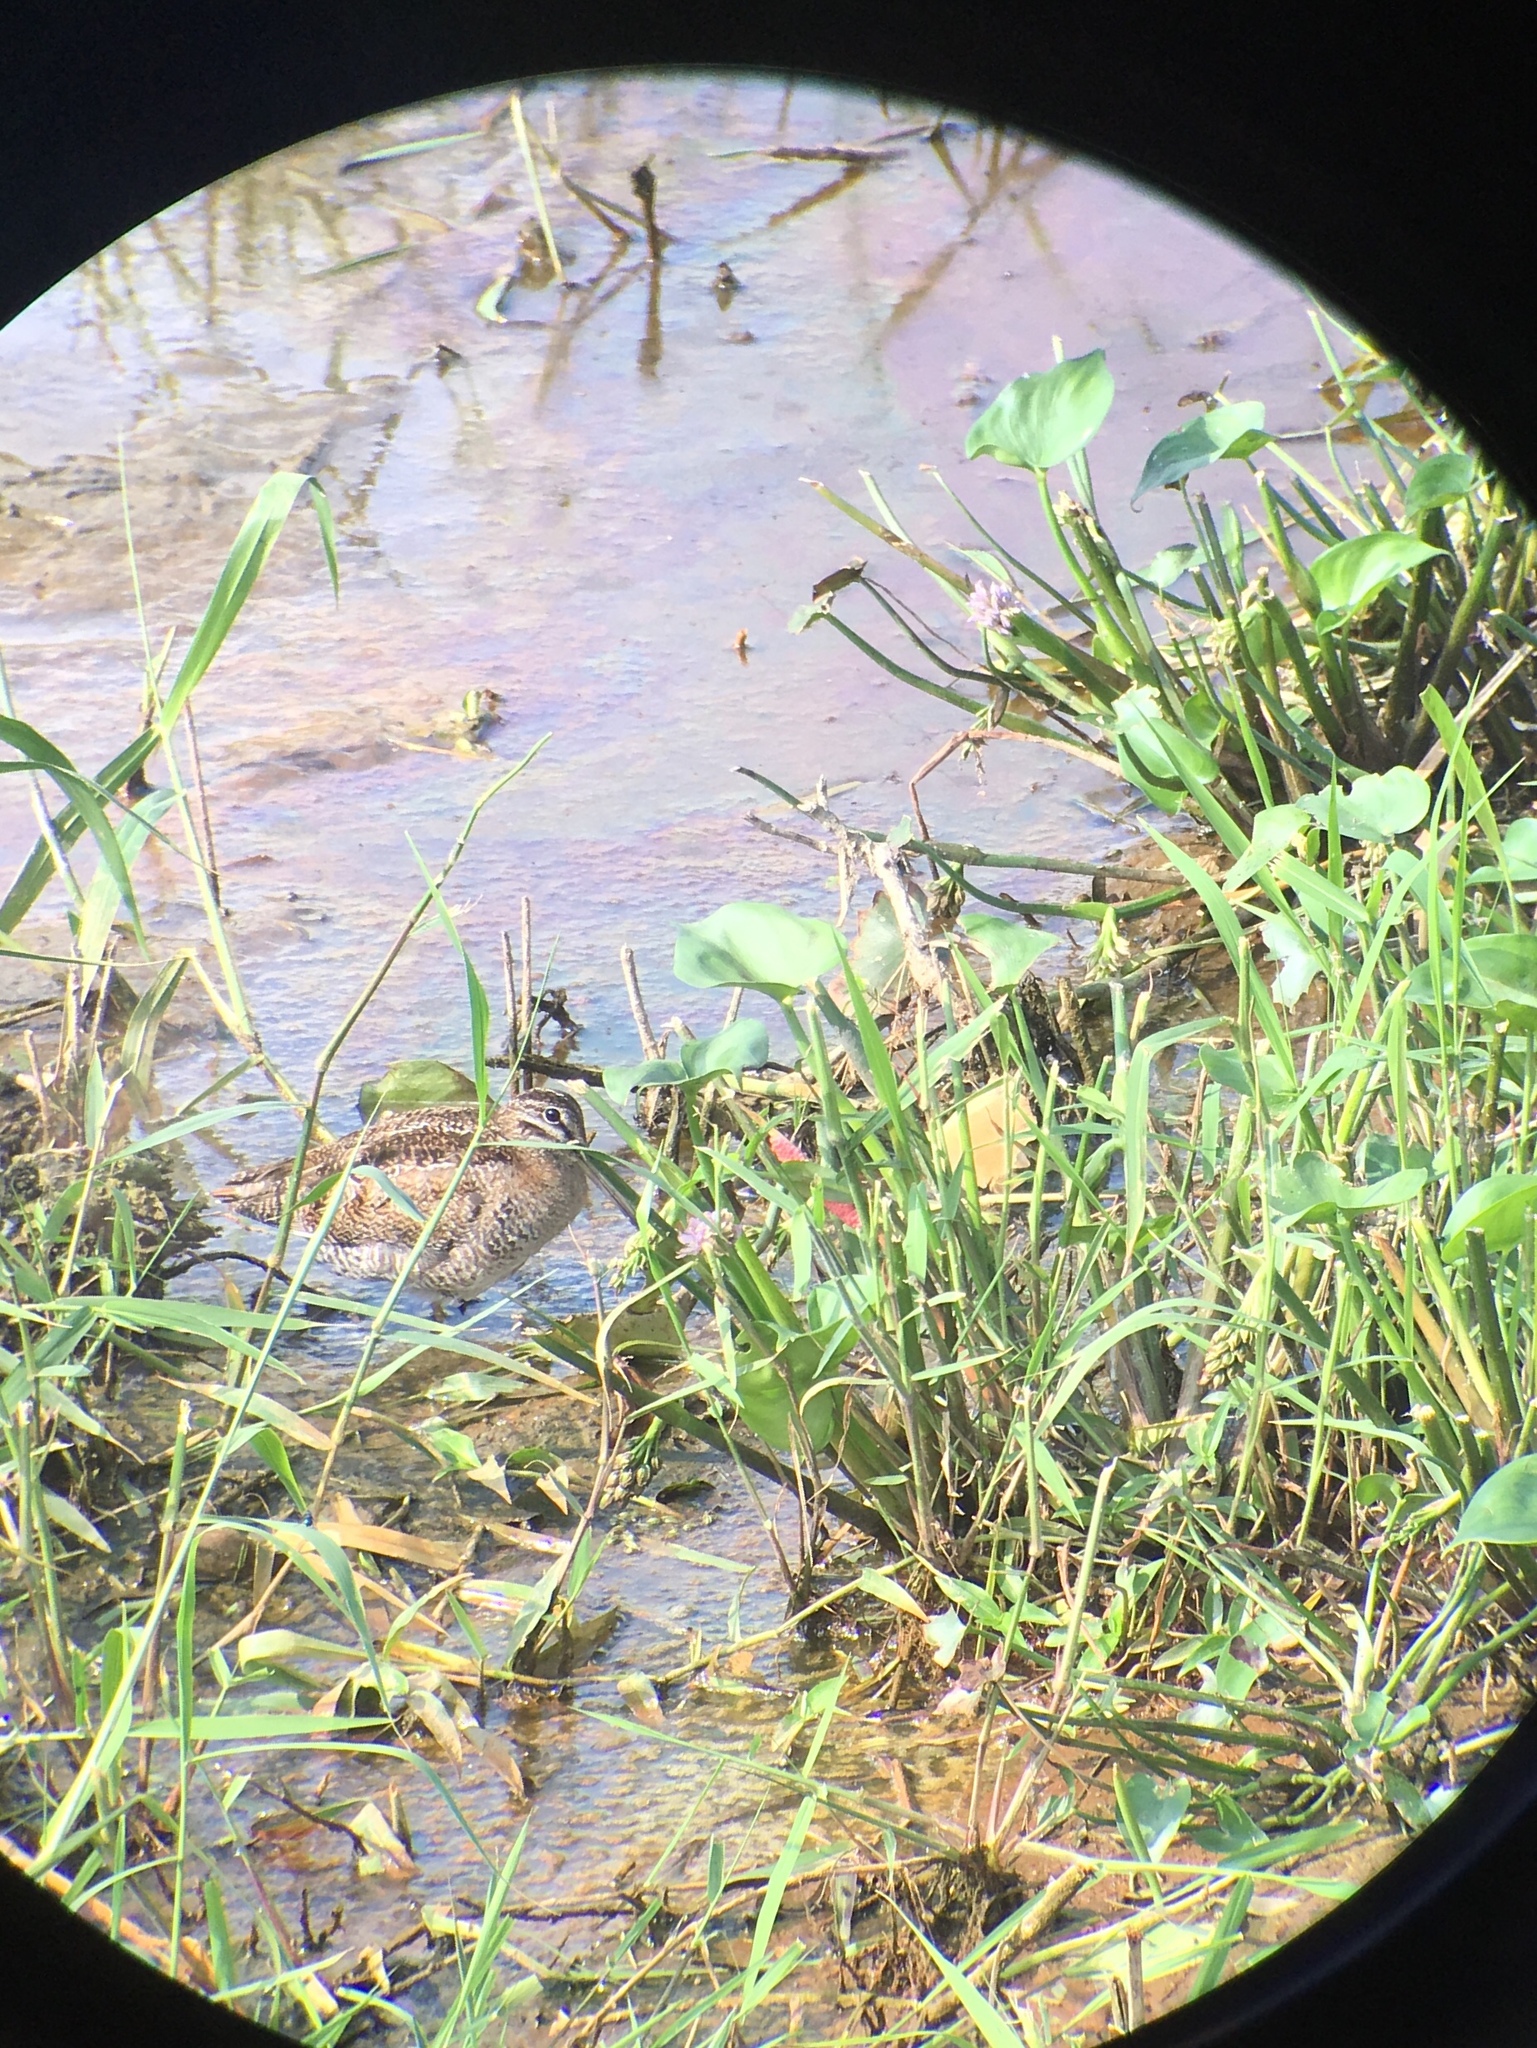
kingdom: Animalia
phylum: Chordata
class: Aves
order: Charadriiformes
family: Scolopacidae
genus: Gallinago
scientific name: Gallinago solitaria
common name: Solitary snipe
